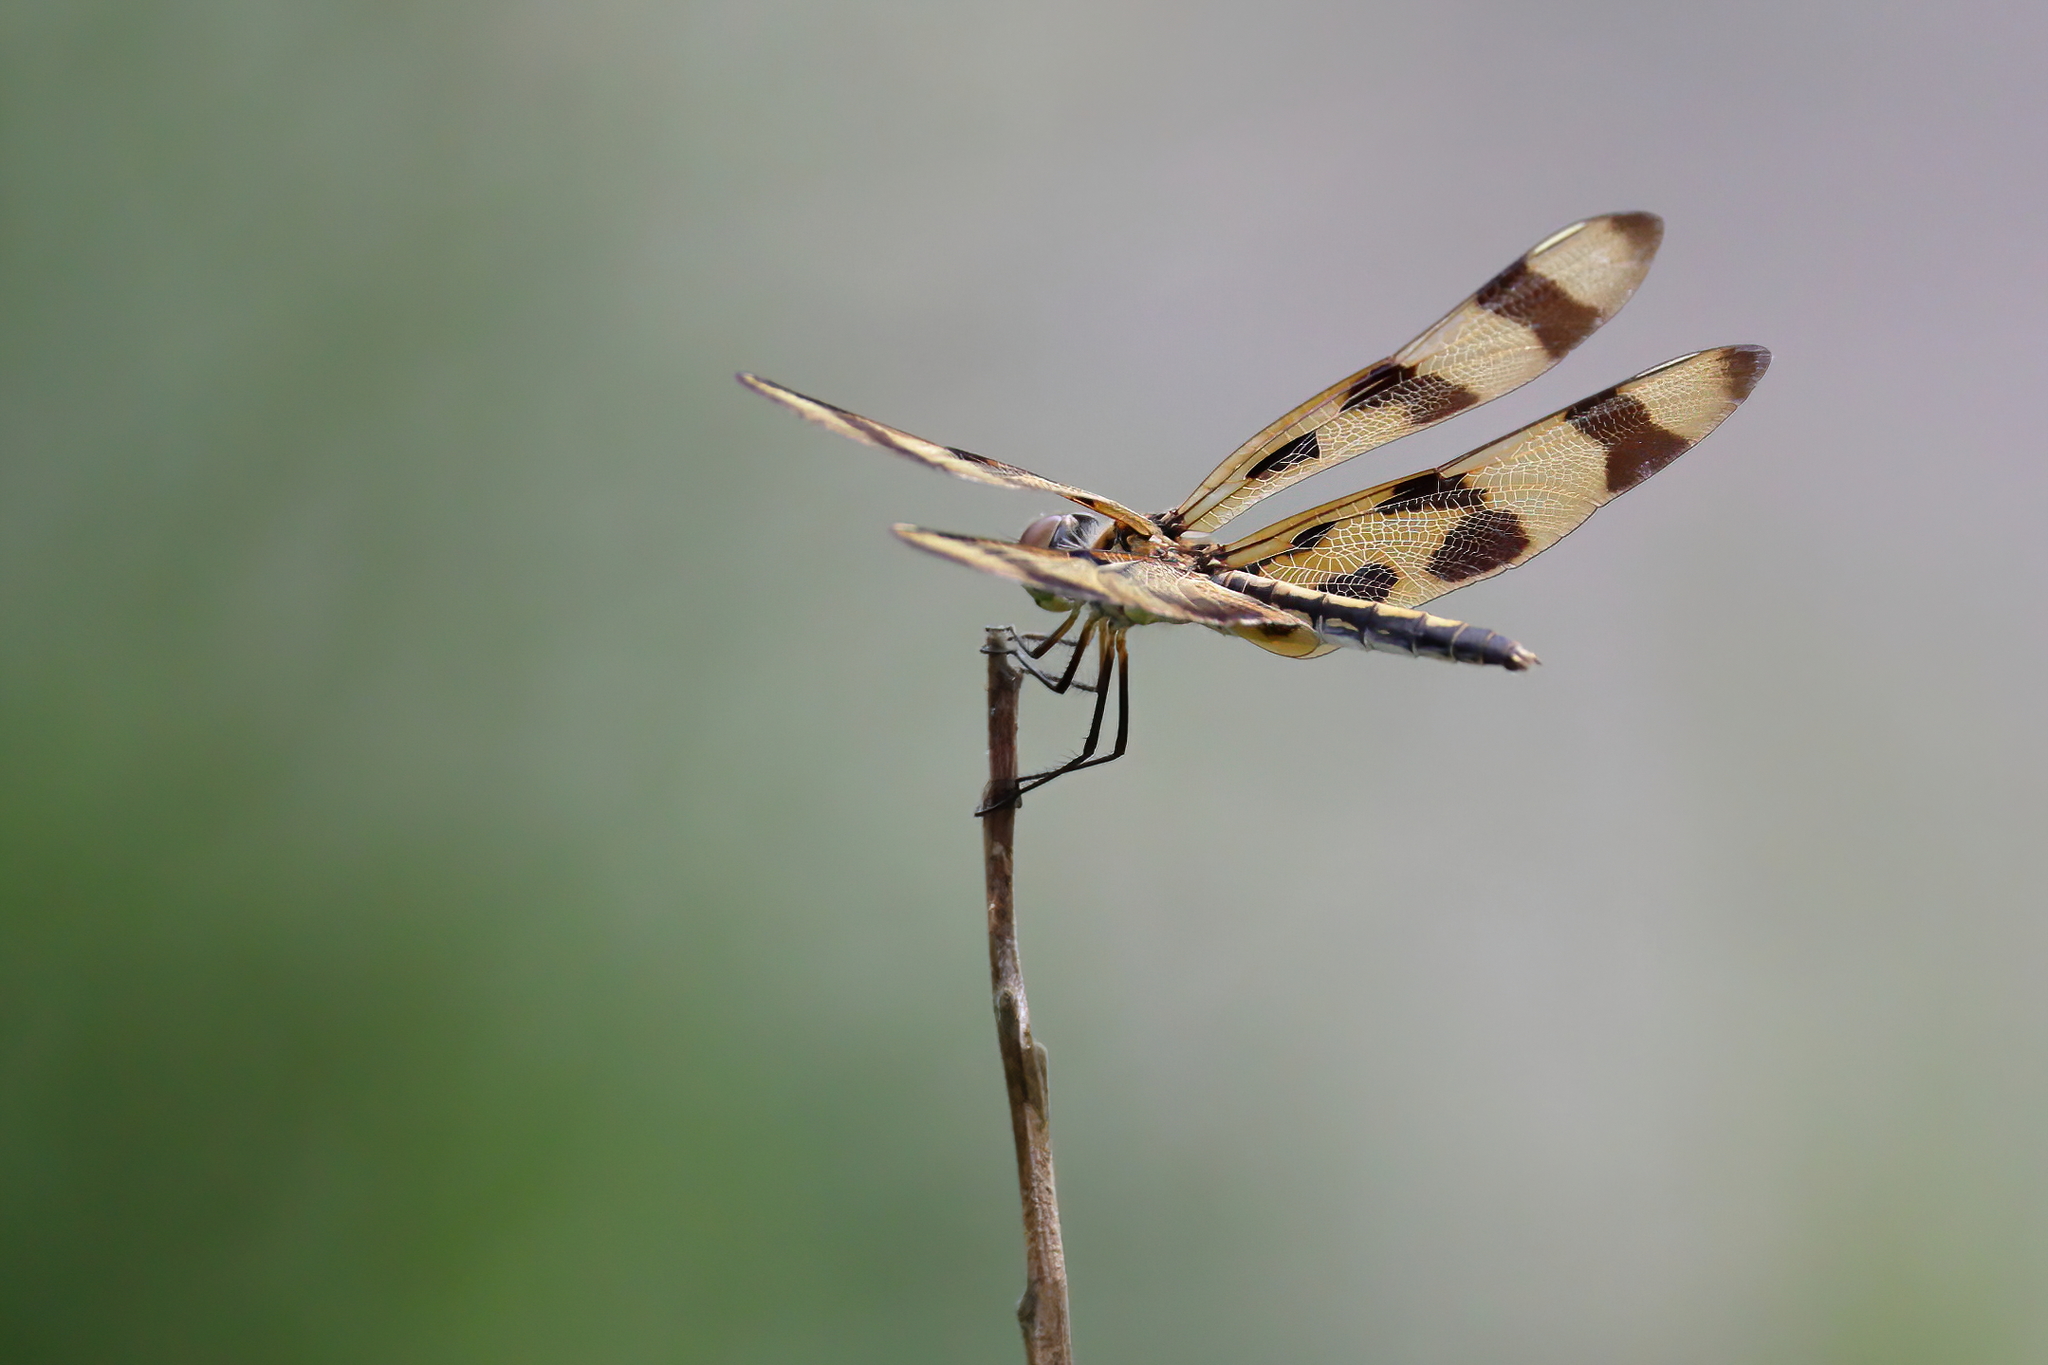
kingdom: Animalia
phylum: Arthropoda
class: Insecta
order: Odonata
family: Libellulidae
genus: Celithemis
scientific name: Celithemis eponina
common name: Halloween pennant
